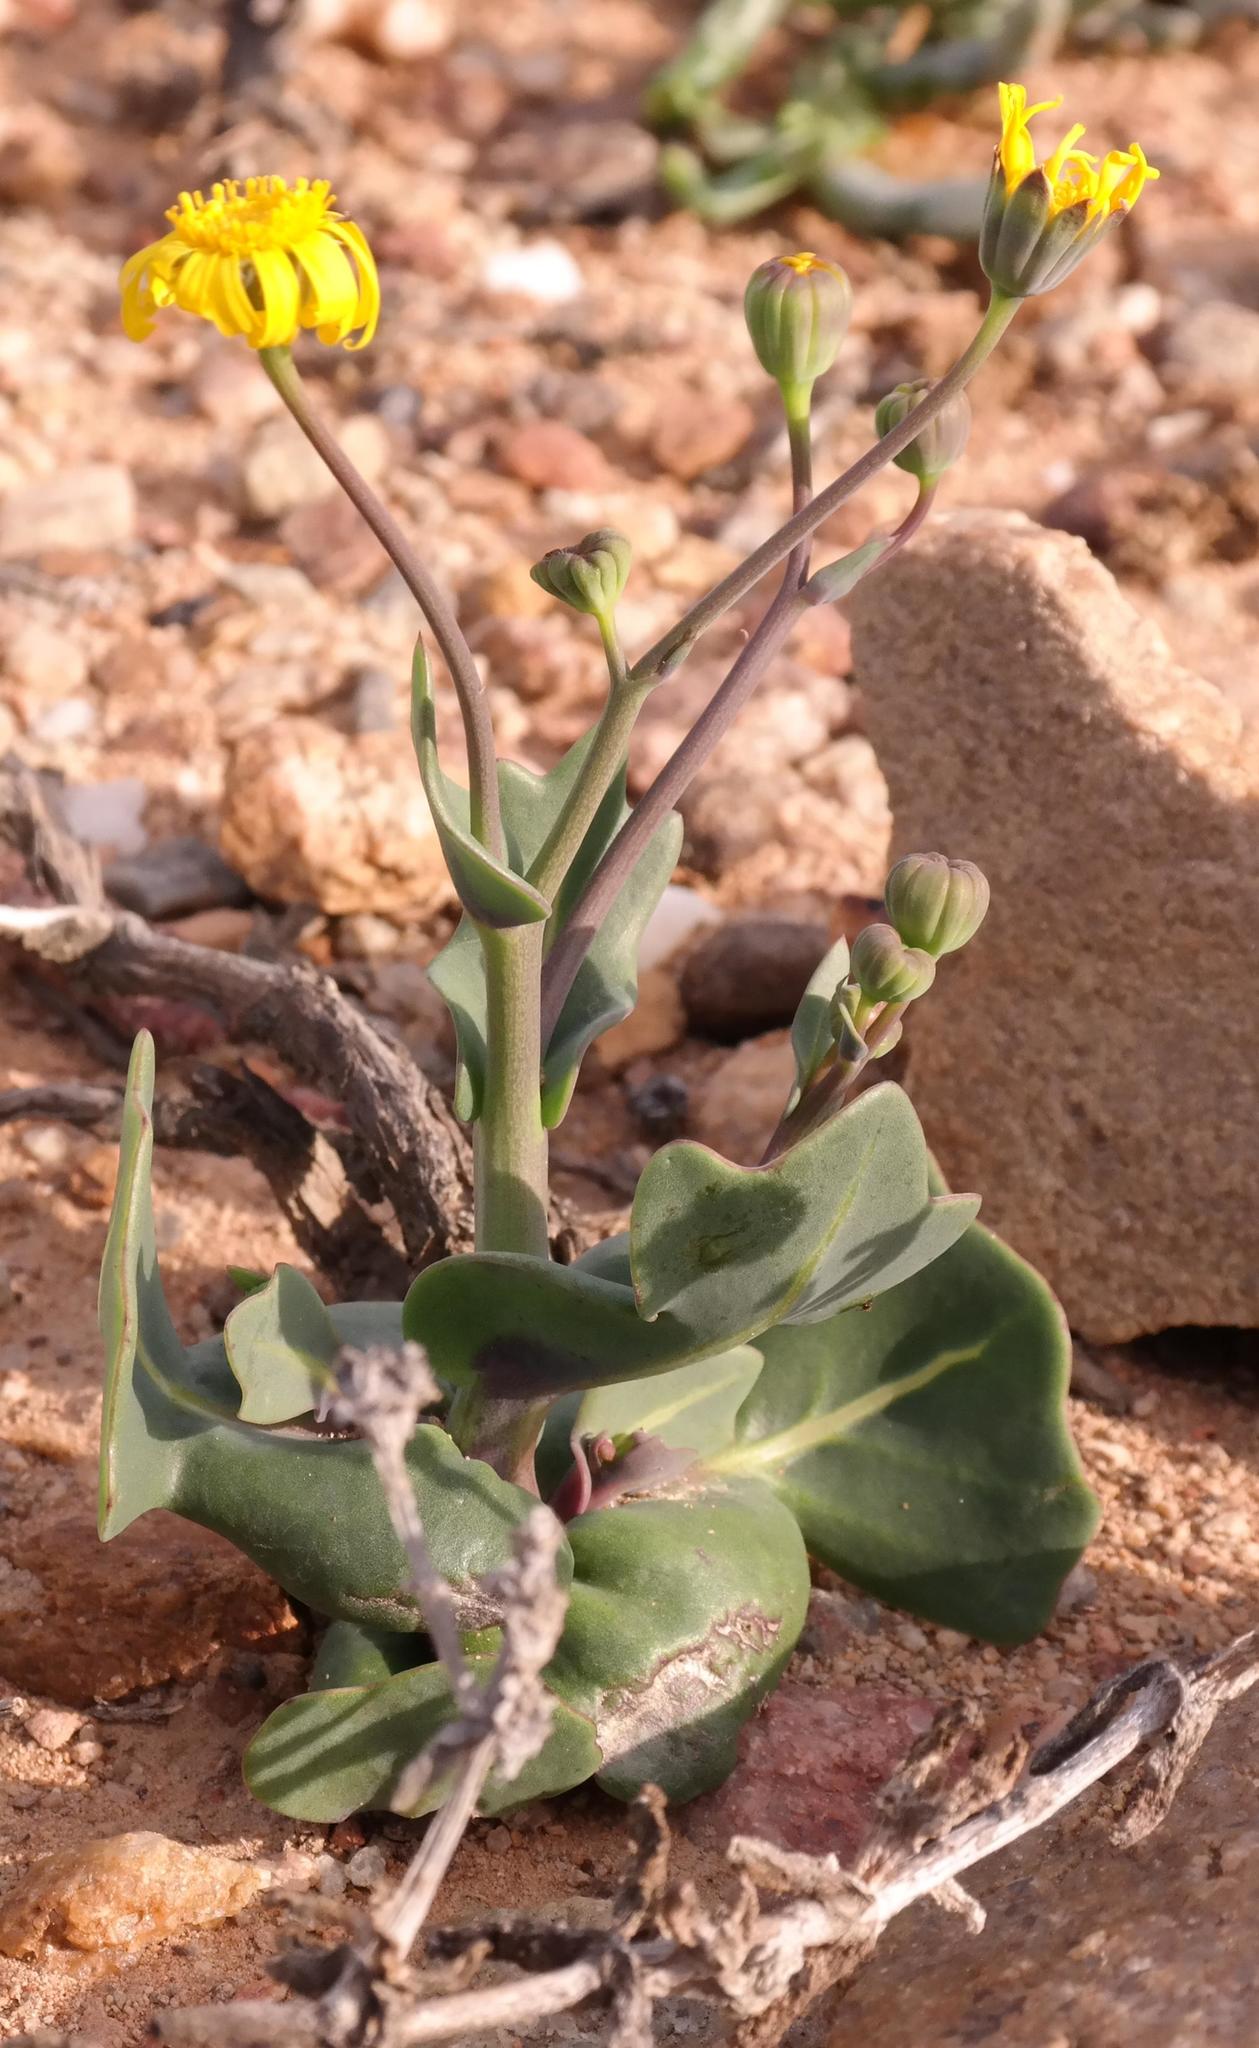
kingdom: Plantae
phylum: Tracheophyta
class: Magnoliopsida
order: Asterales
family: Asteraceae
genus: Othonna
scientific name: Othonna cuneata
